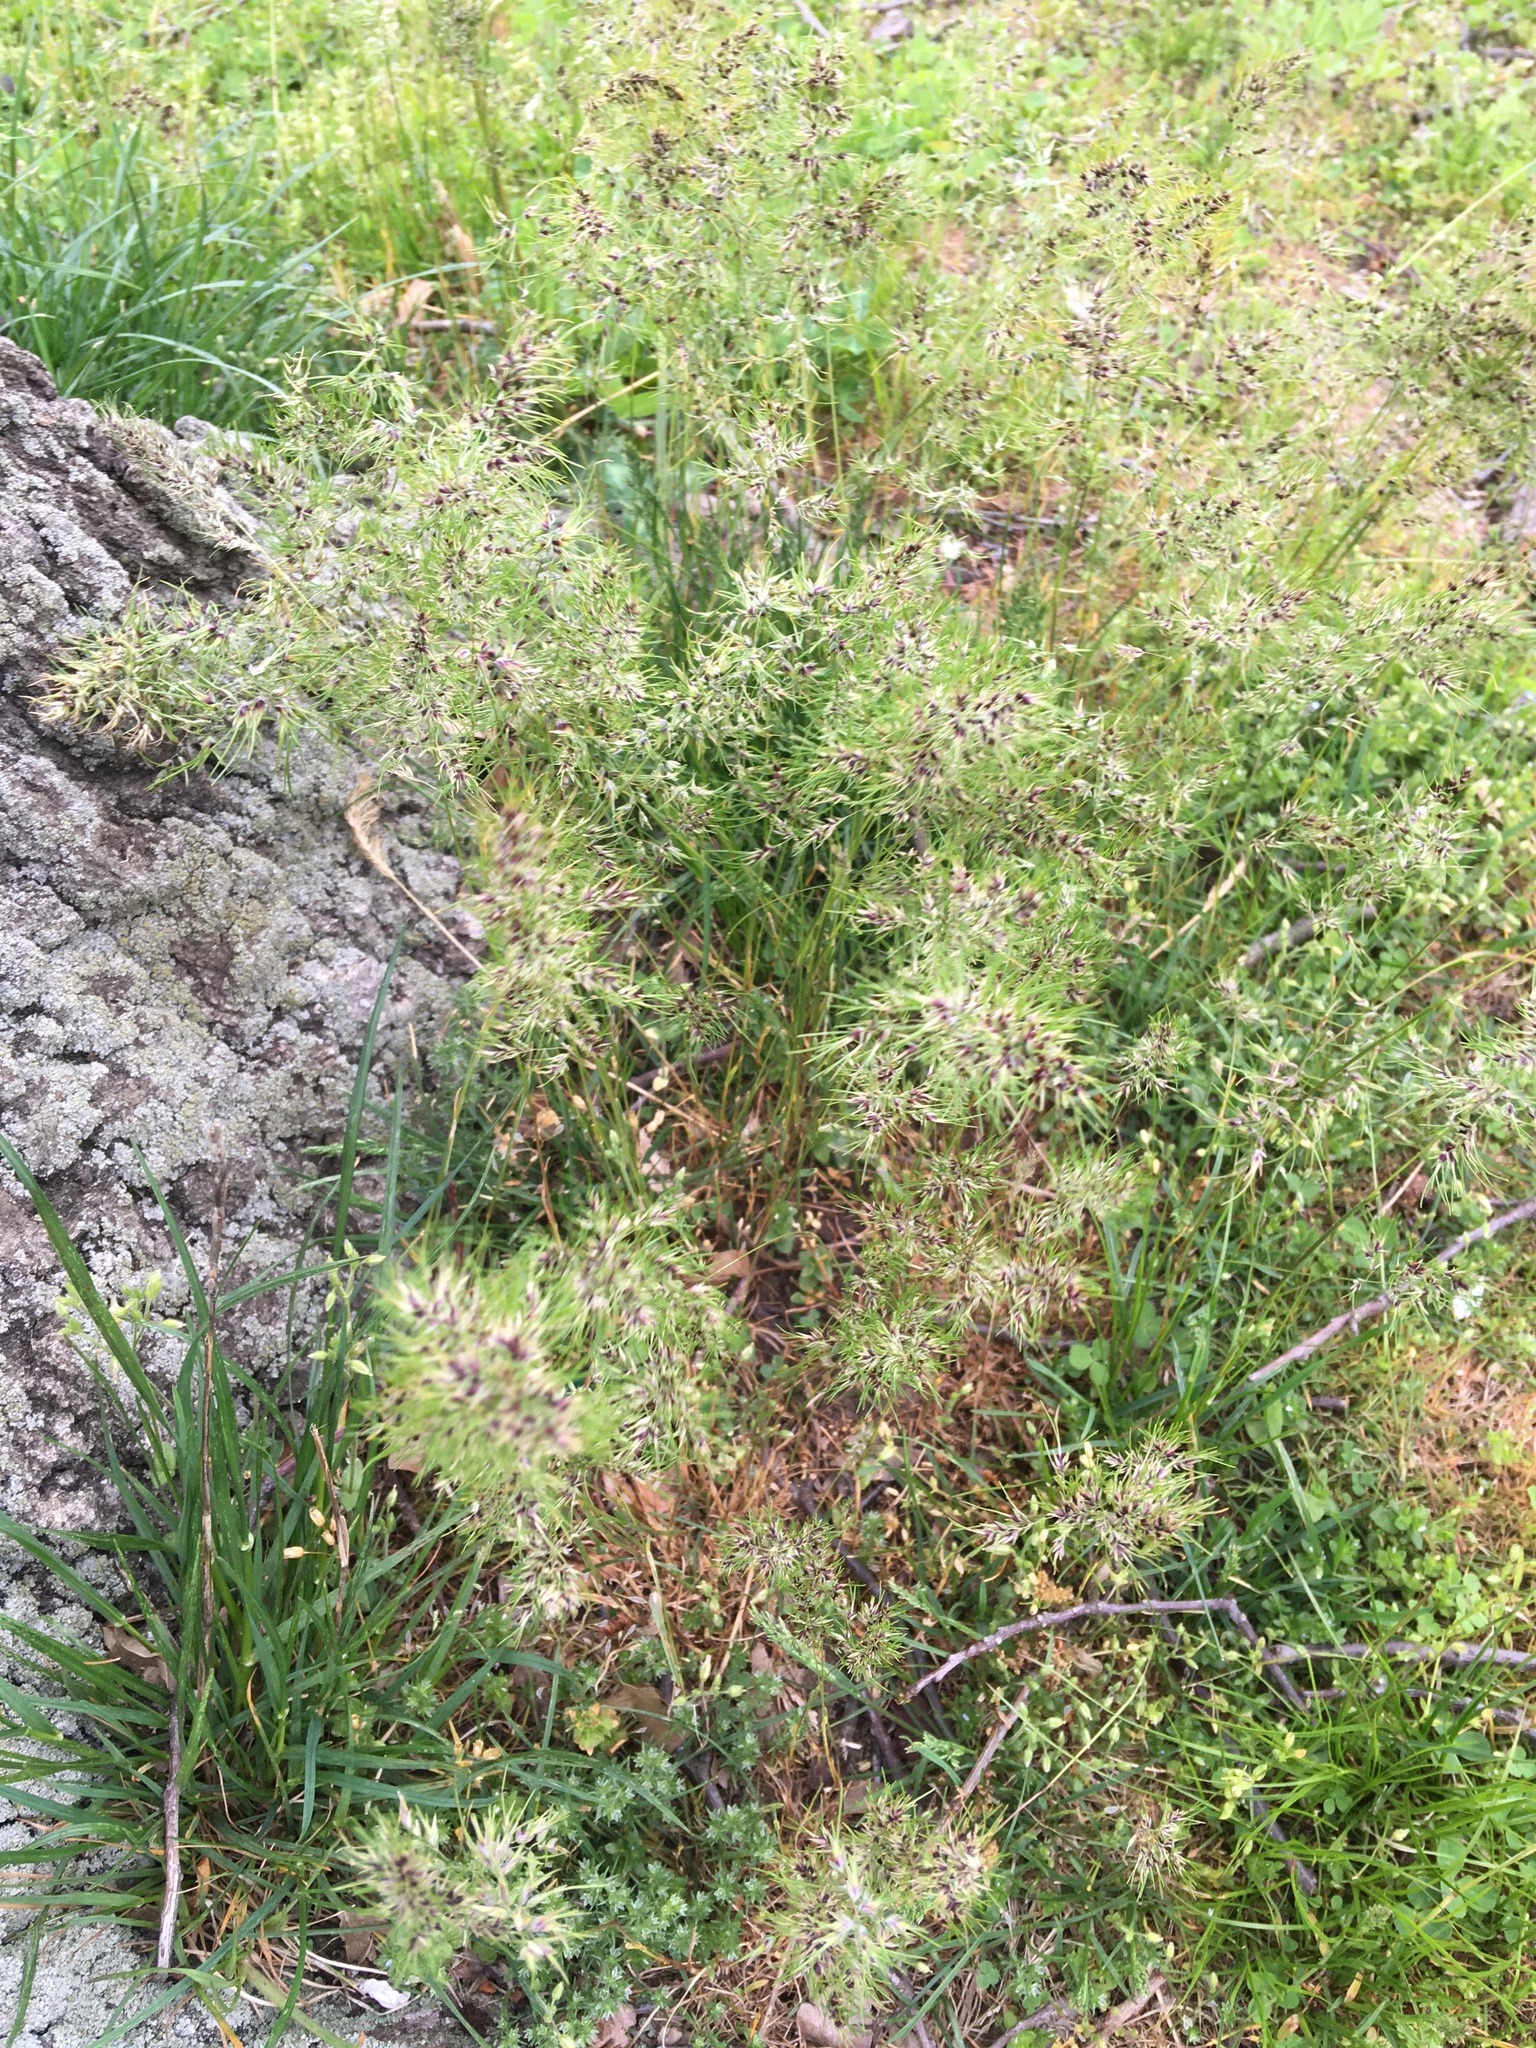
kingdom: Plantae
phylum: Tracheophyta
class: Liliopsida
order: Poales
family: Poaceae
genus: Poa
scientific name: Poa bulbosa
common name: Bulbous bluegrass
